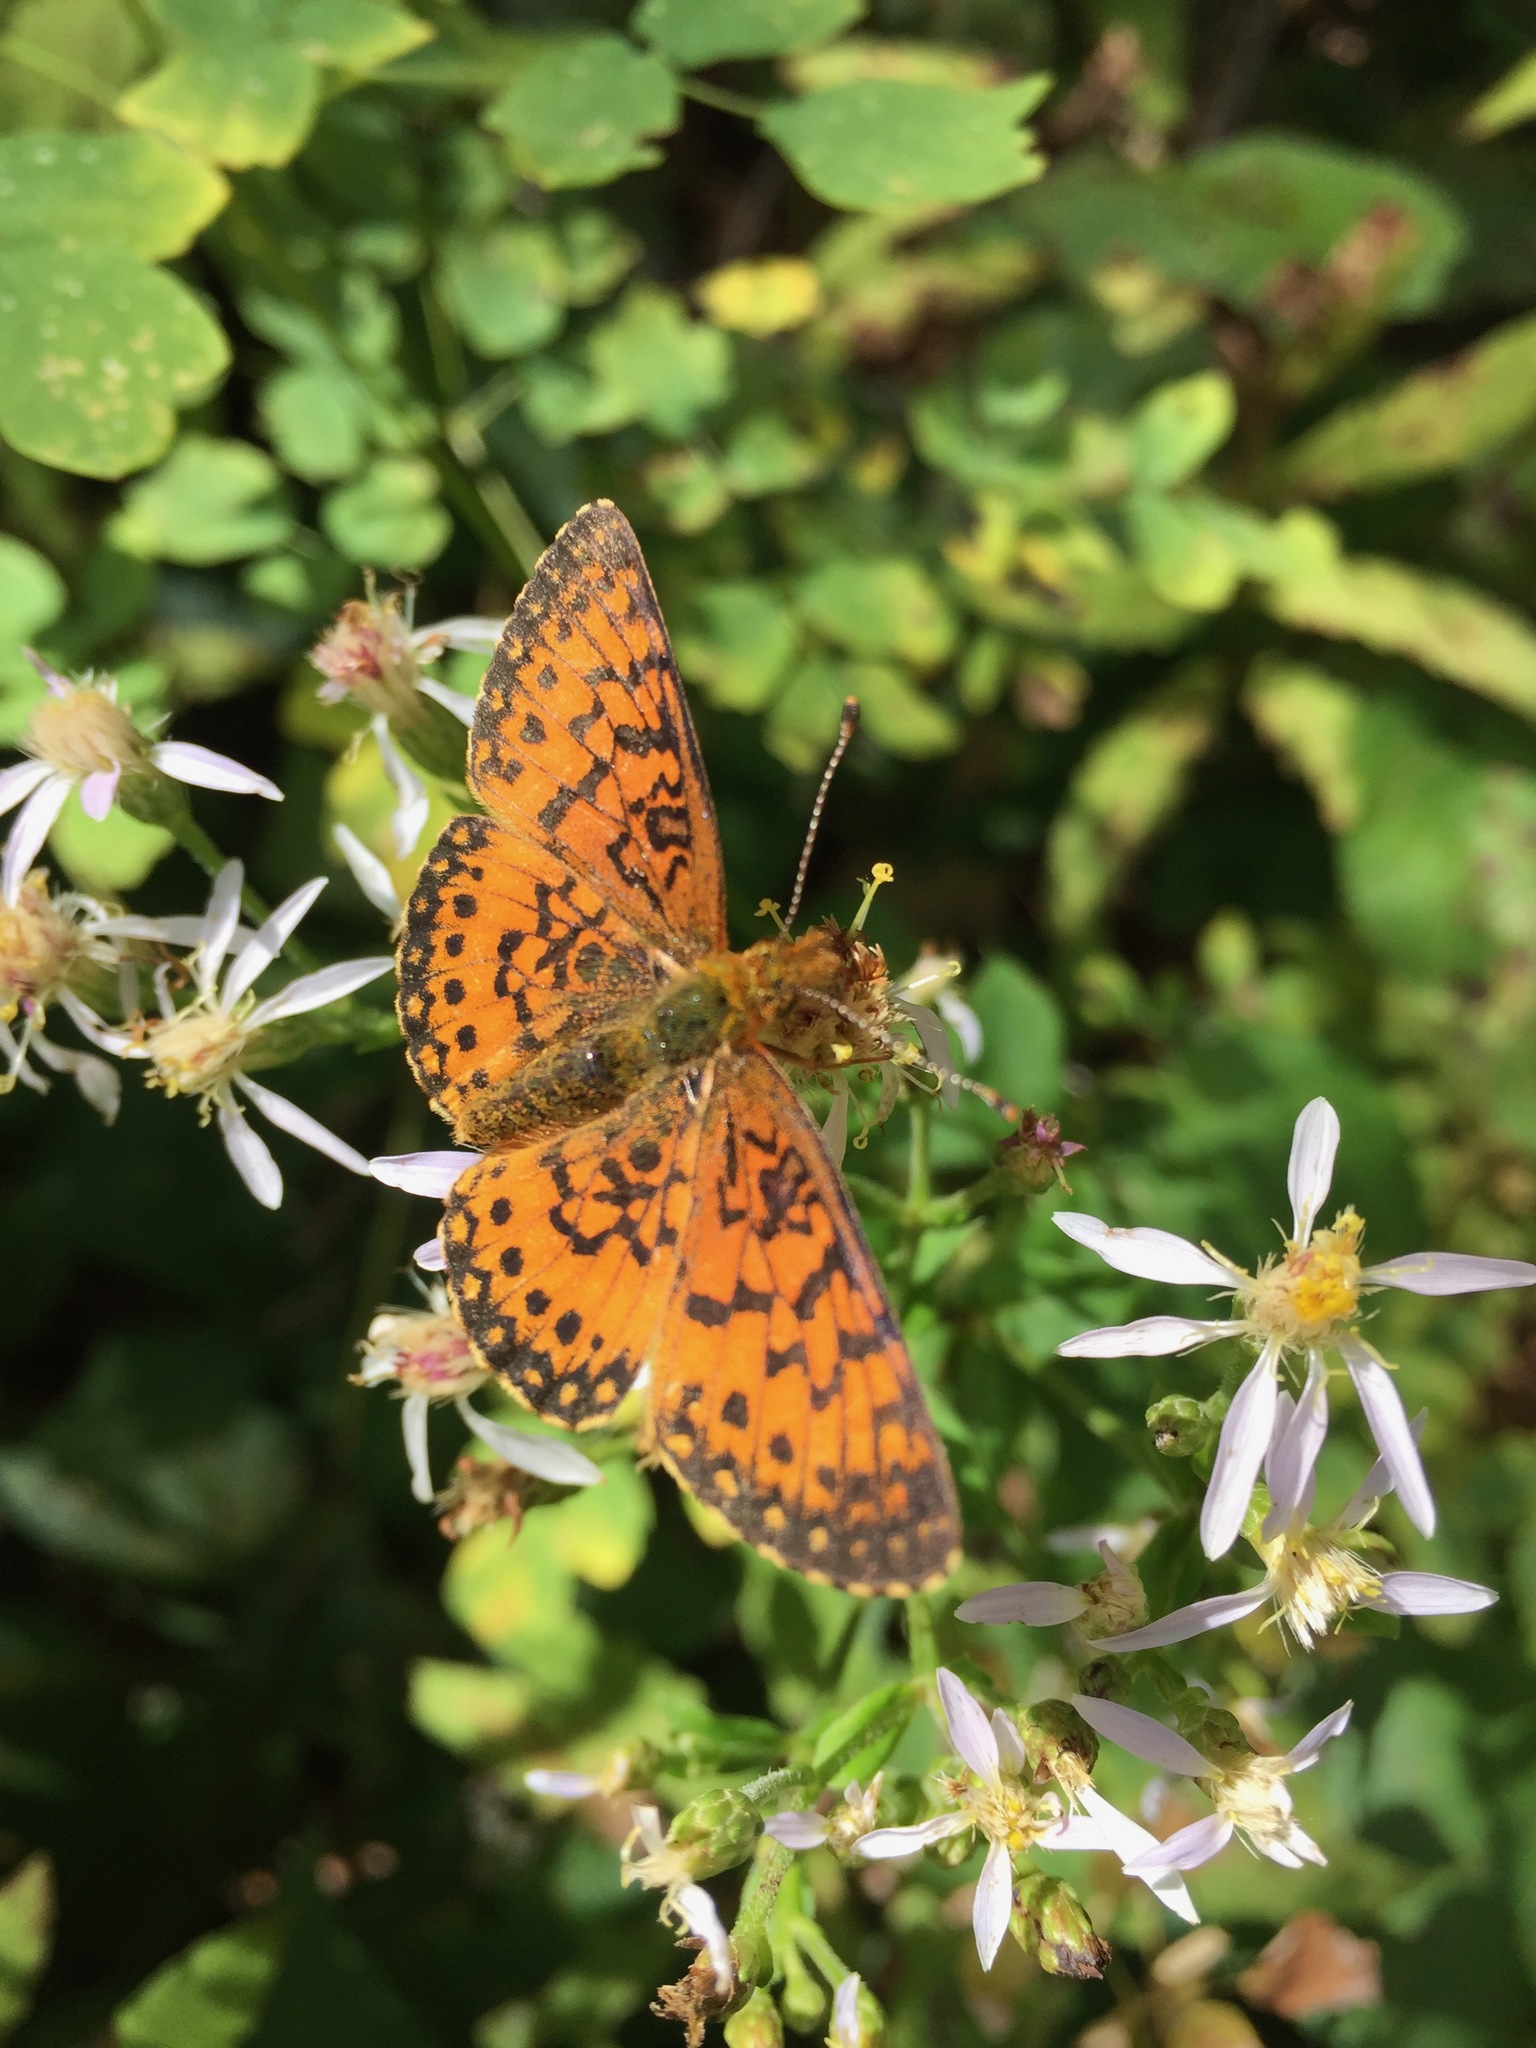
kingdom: Animalia
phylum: Arthropoda
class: Insecta
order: Lepidoptera
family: Nymphalidae
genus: Boloria
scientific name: Boloria
